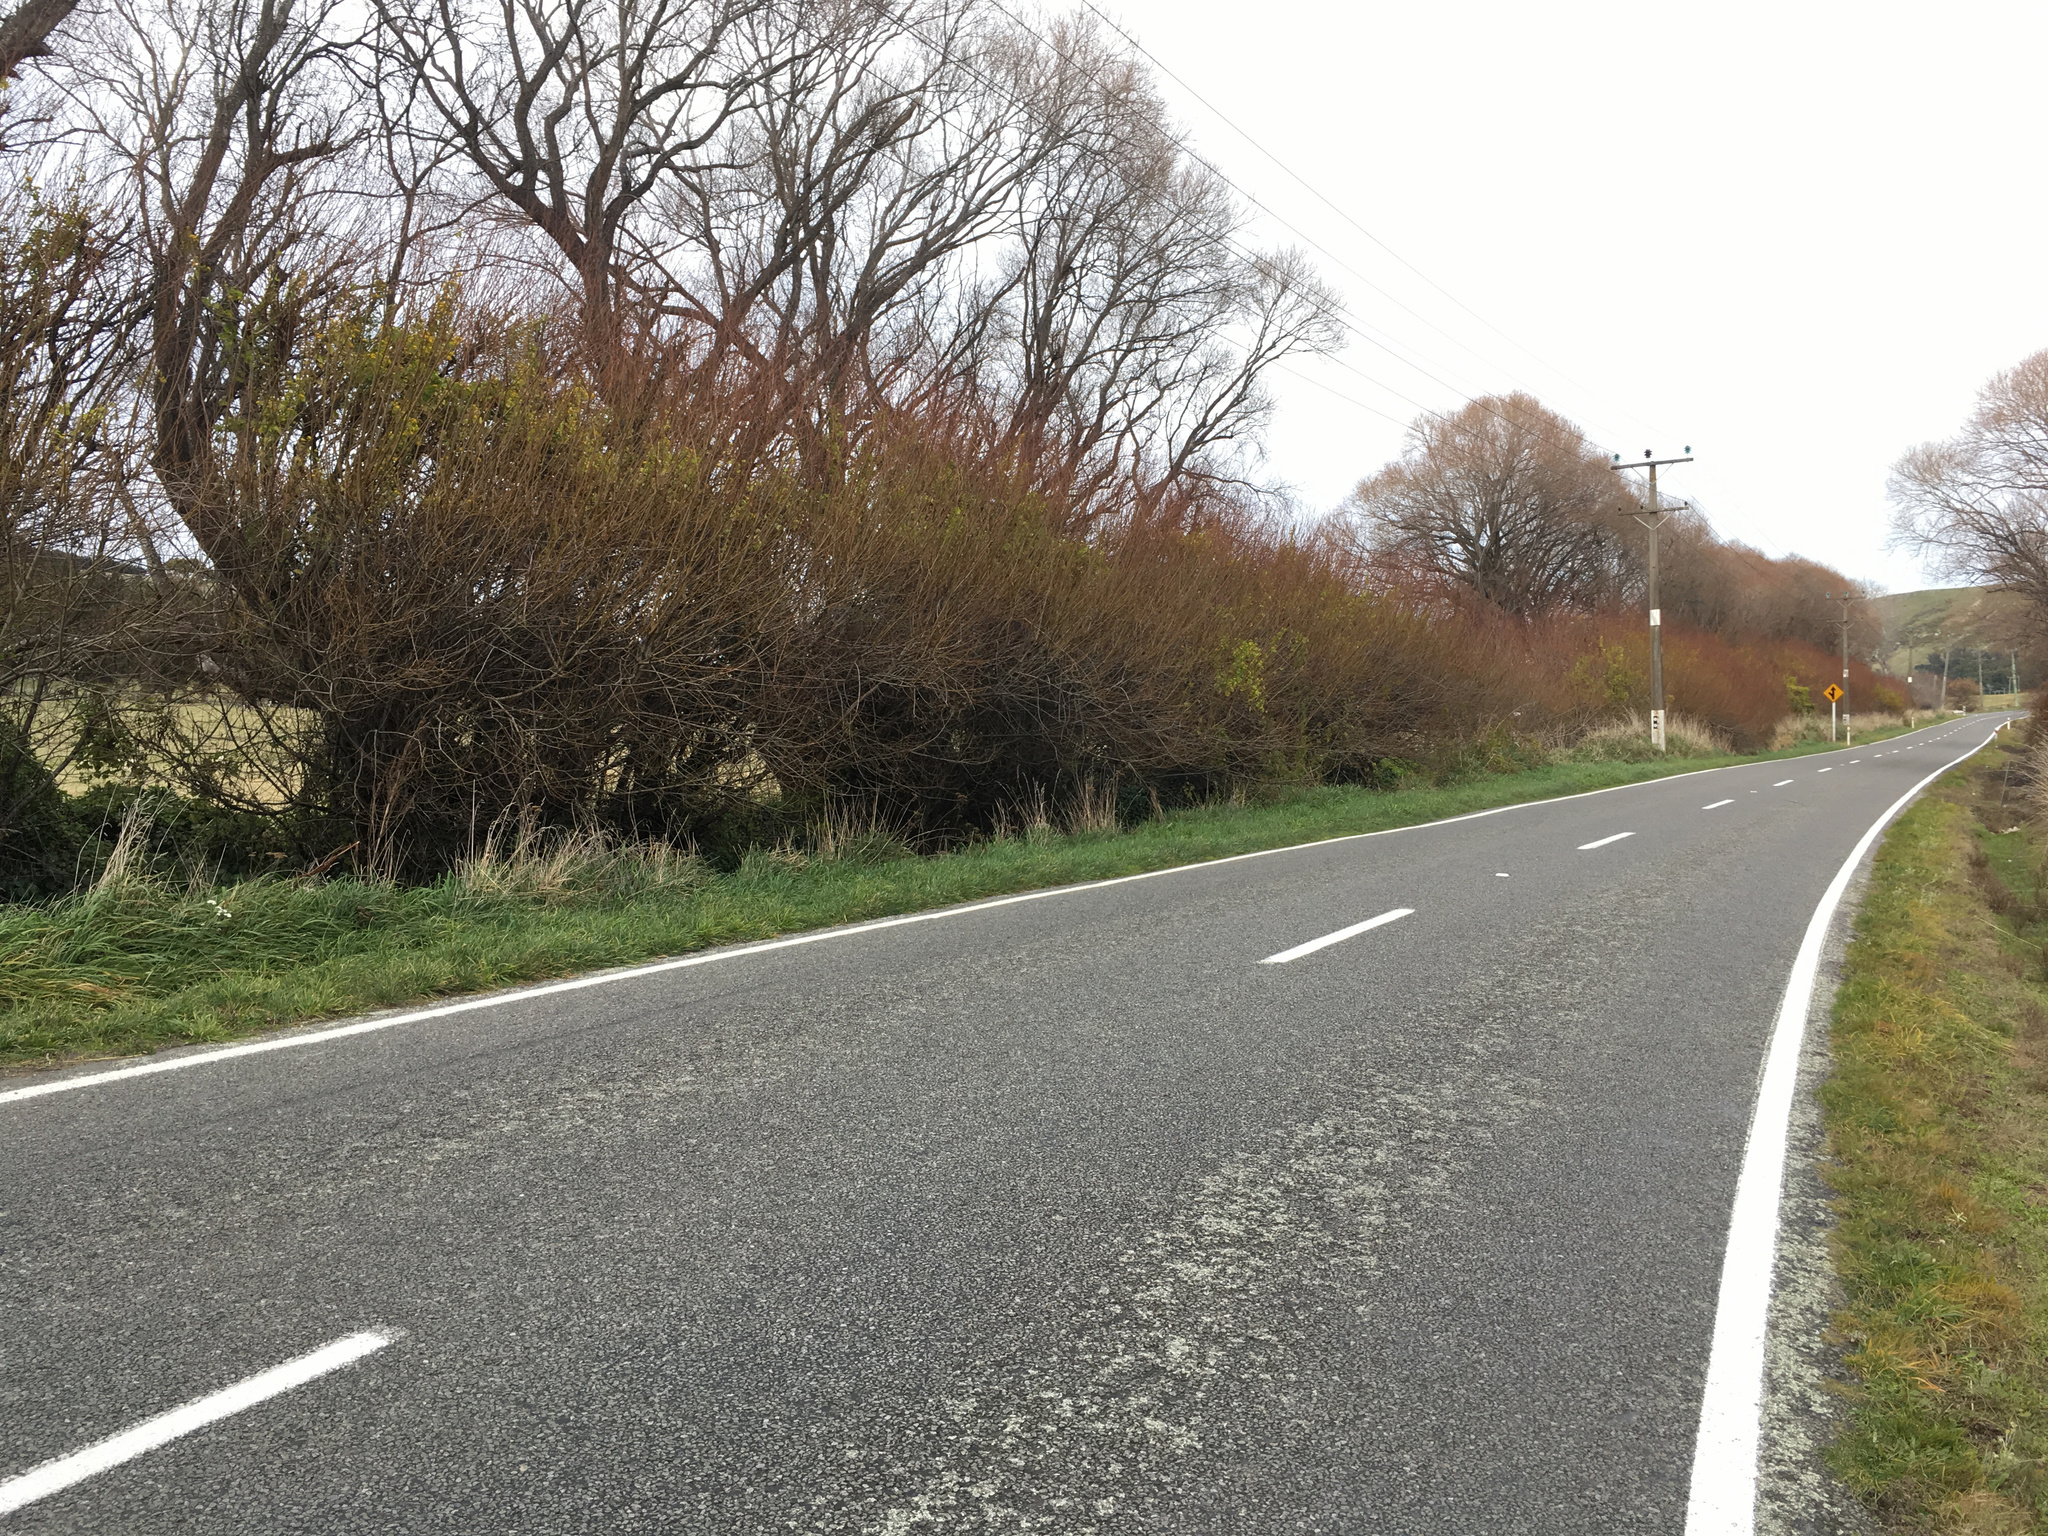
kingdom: Plantae
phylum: Tracheophyta
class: Magnoliopsida
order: Asterales
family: Asteraceae
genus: Delairea
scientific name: Delairea odorata
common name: Cape-ivy
